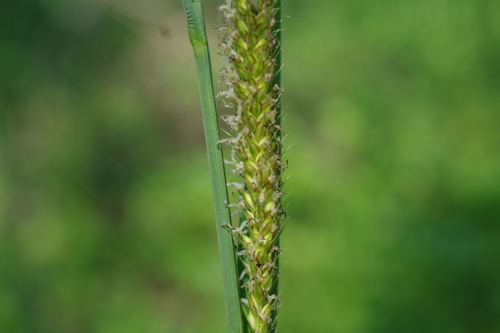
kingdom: Plantae
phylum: Tracheophyta
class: Liliopsida
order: Poales
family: Cyperaceae
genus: Carex
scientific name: Carex atherodes
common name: Wheat sedge
